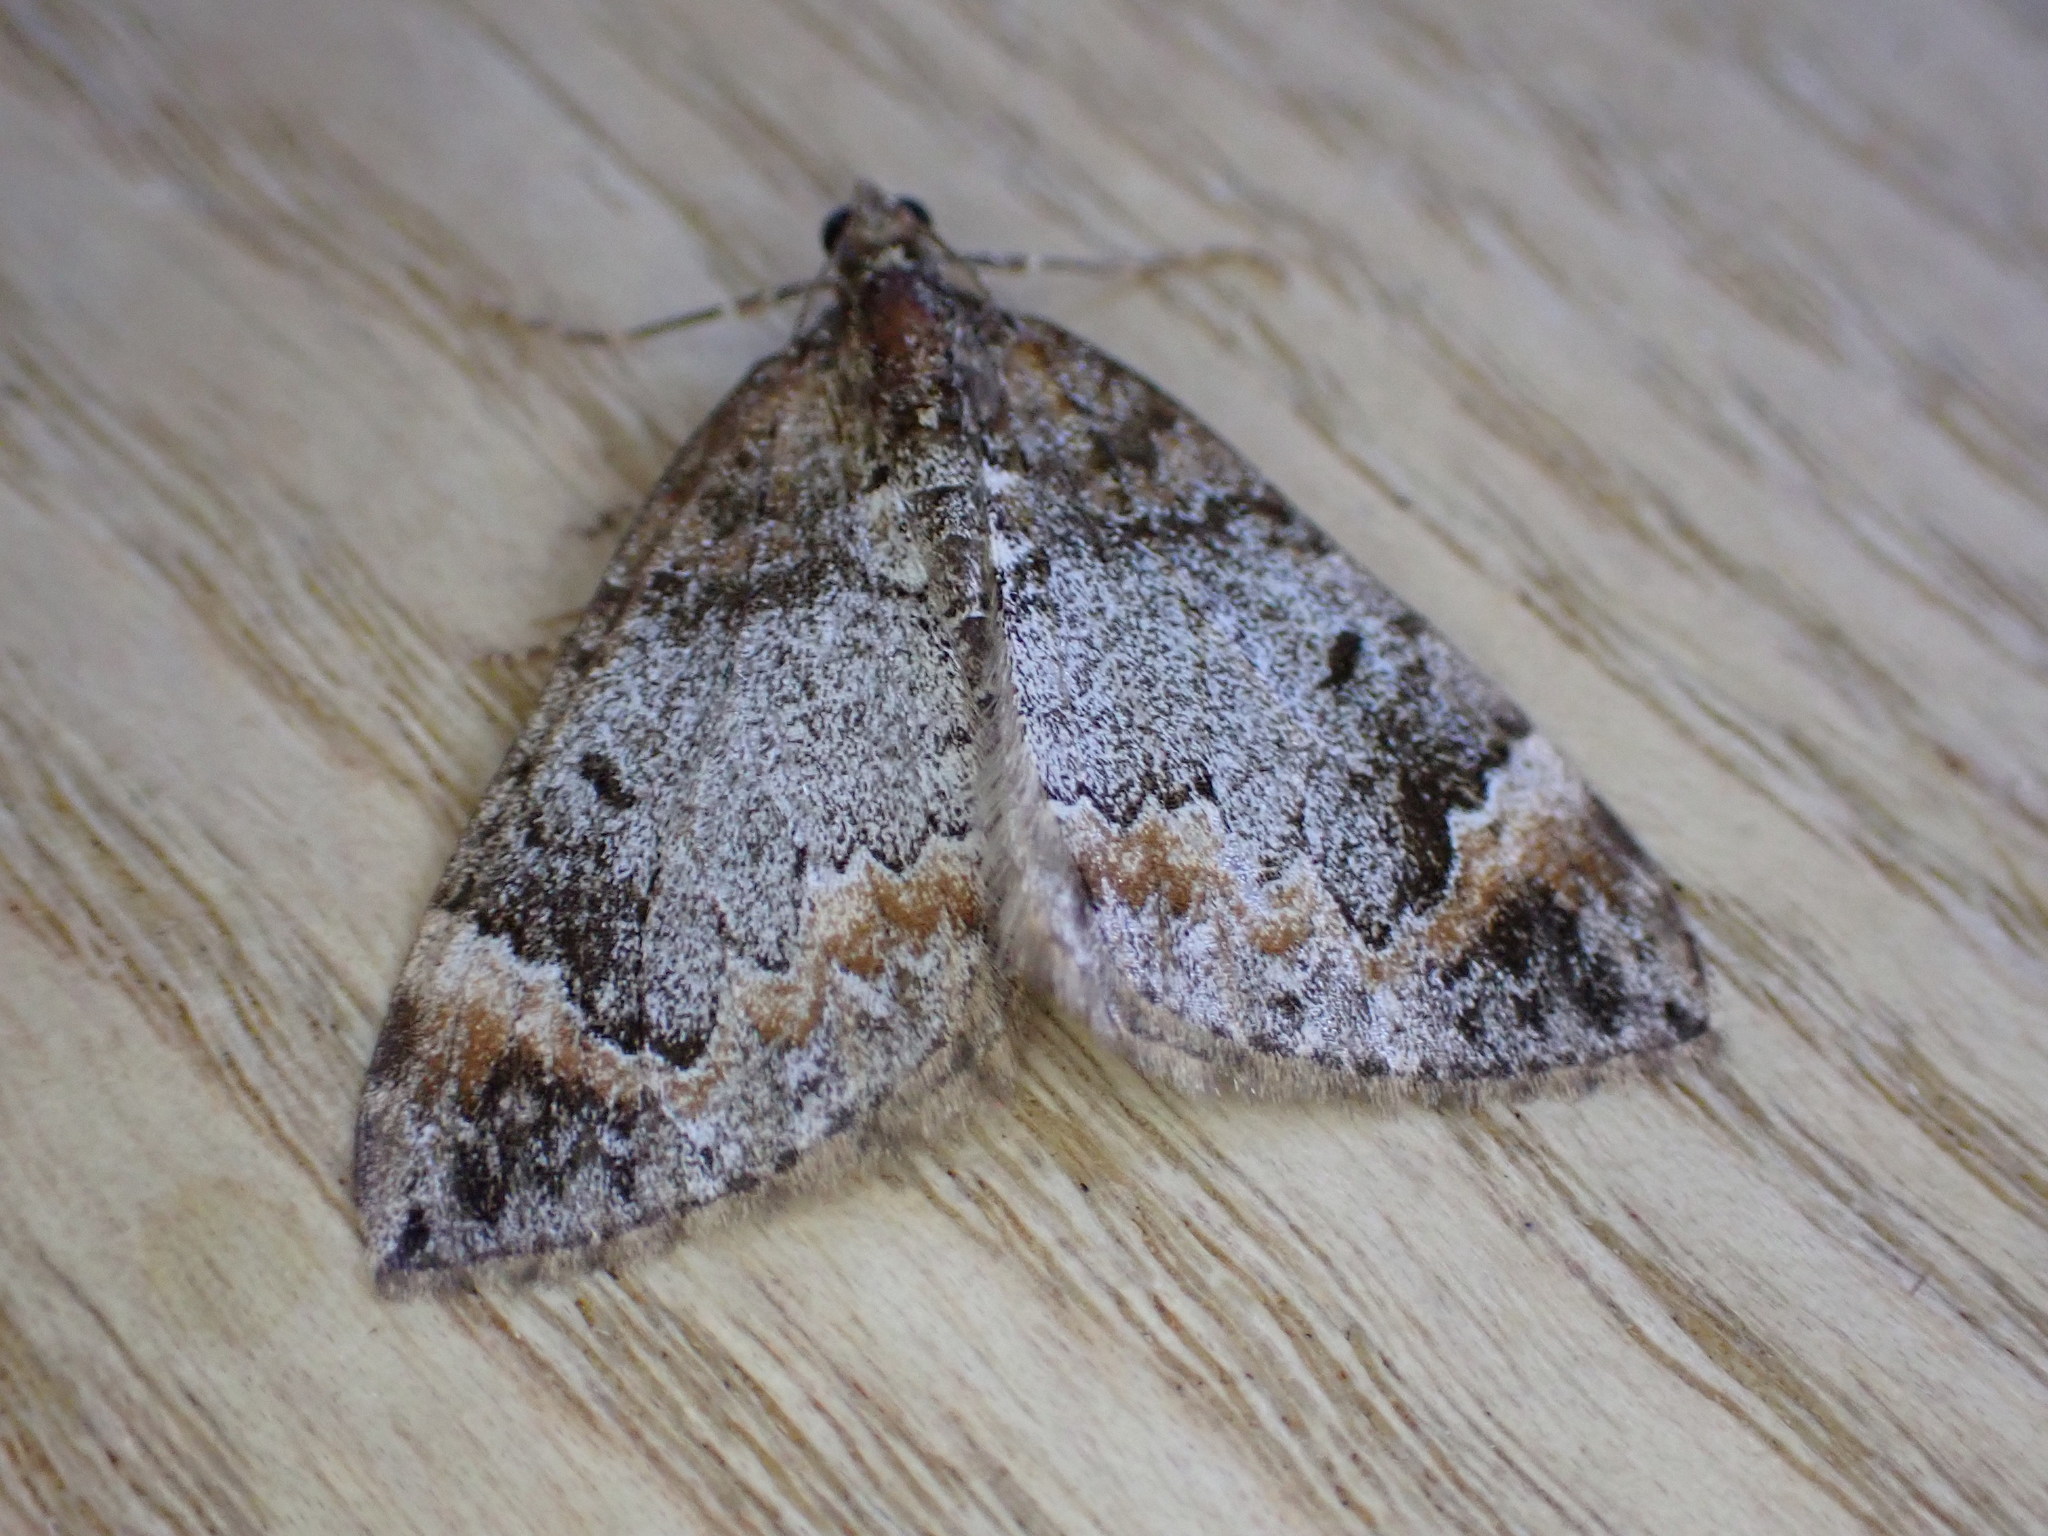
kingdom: Animalia
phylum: Arthropoda
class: Insecta
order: Lepidoptera
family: Geometridae
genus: Dysstroma
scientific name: Dysstroma truncata
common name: Common marbled carpet
